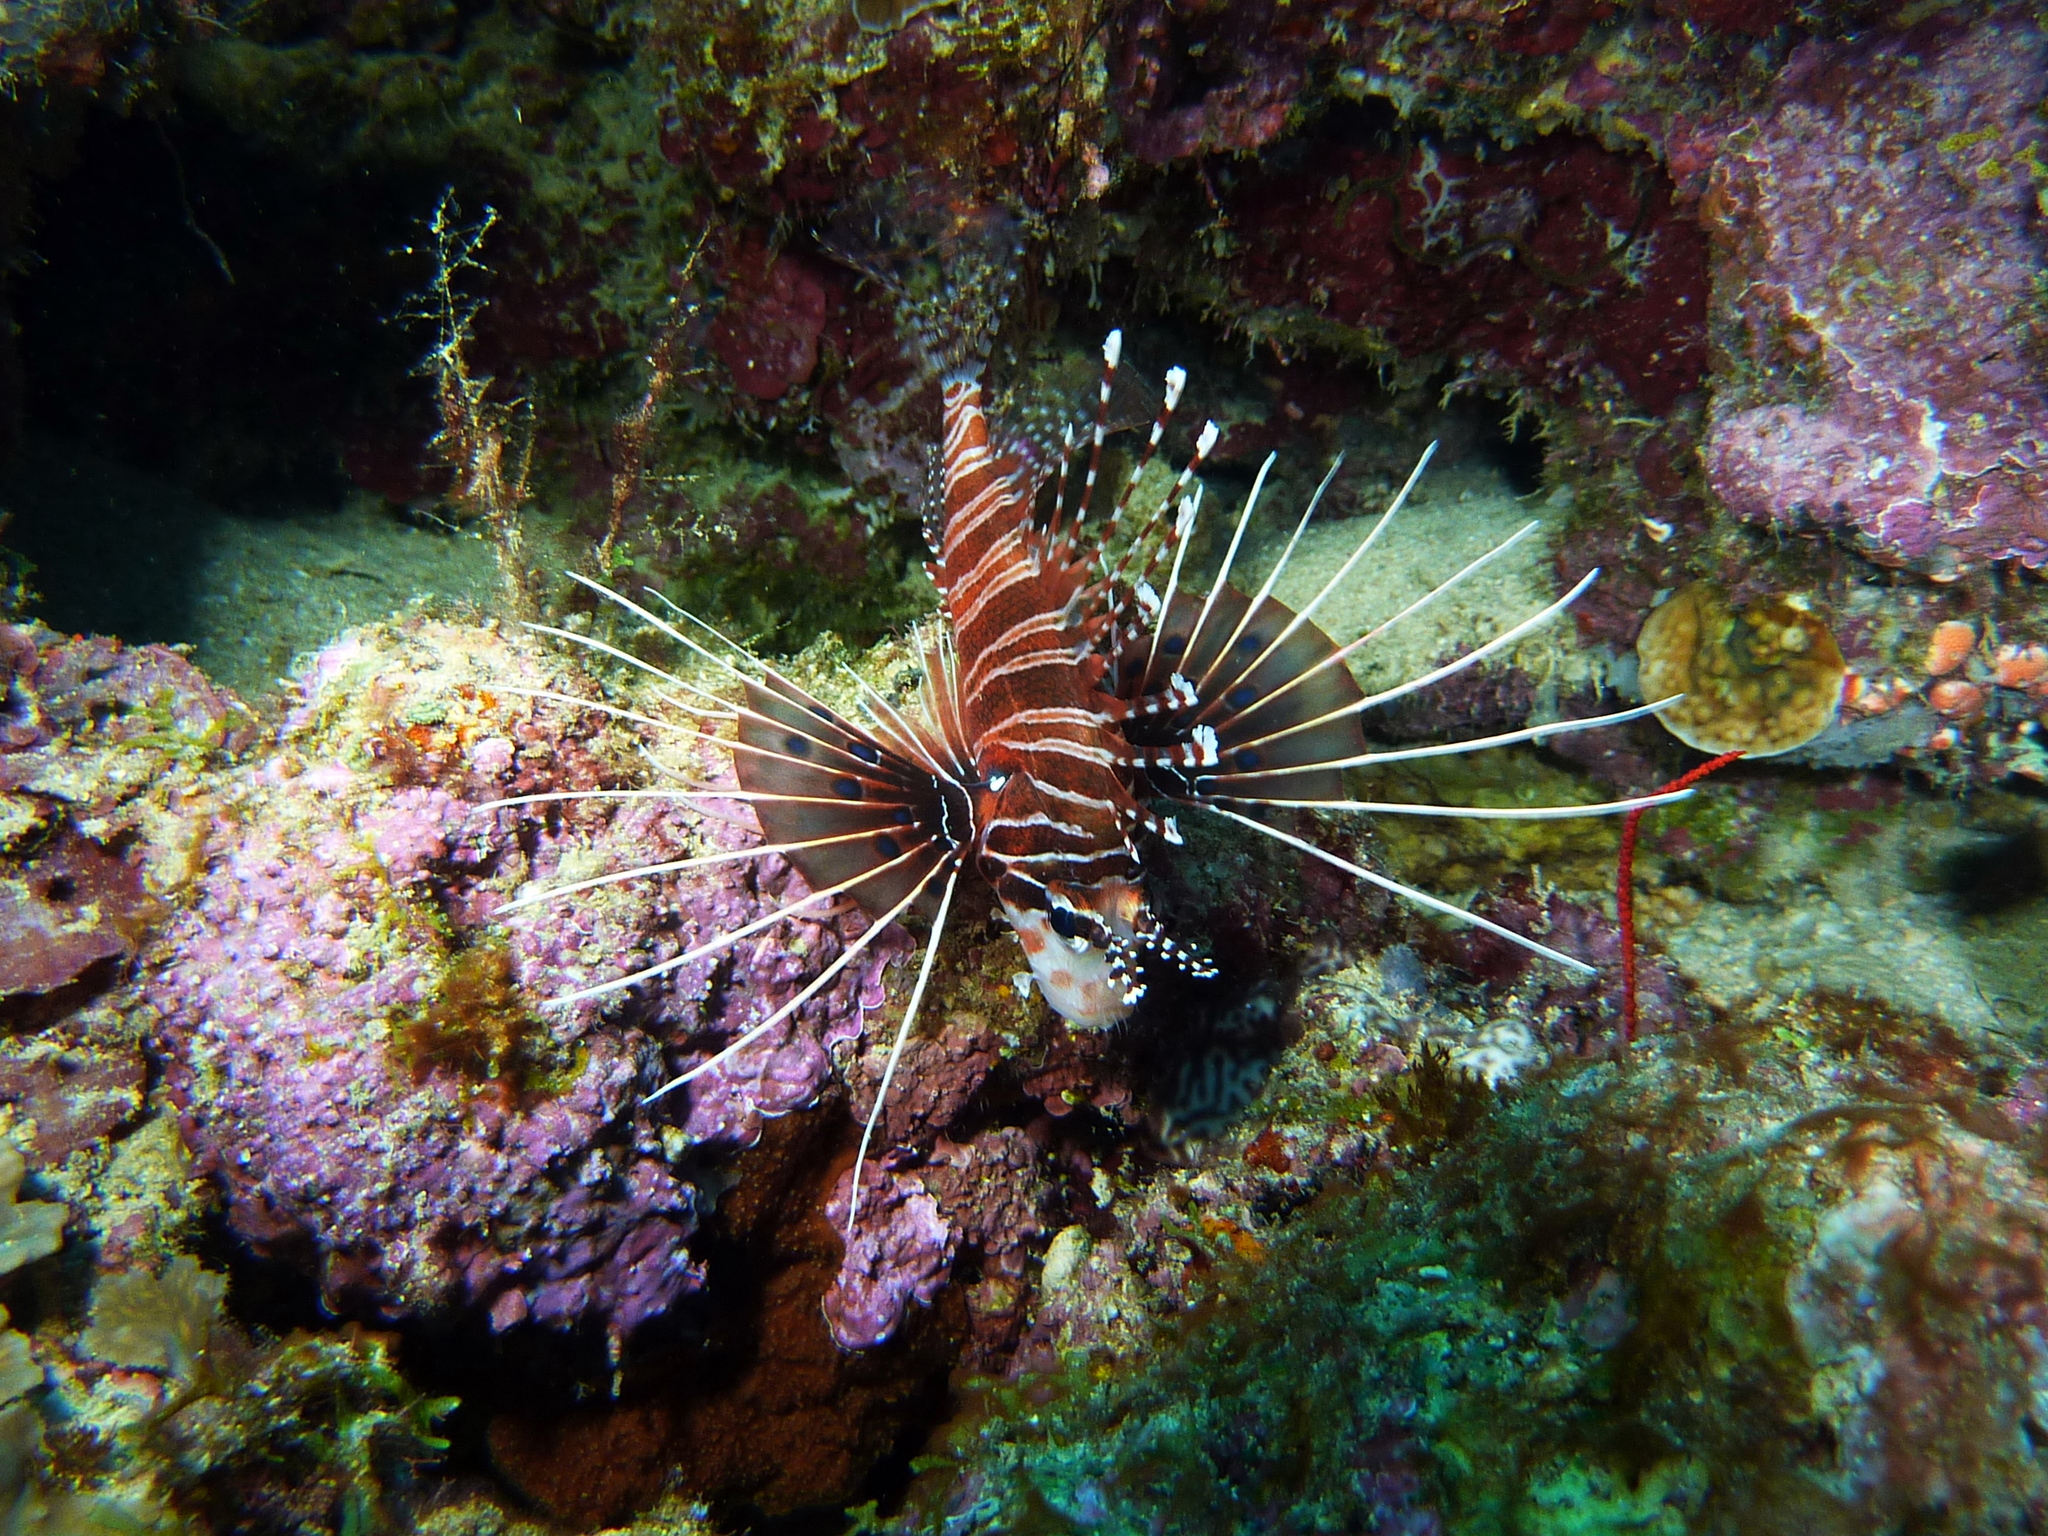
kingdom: Animalia
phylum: Chordata
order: Scorpaeniformes
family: Scorpaenidae
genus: Pterois
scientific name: Pterois antennata
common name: Spotfin lionfish
